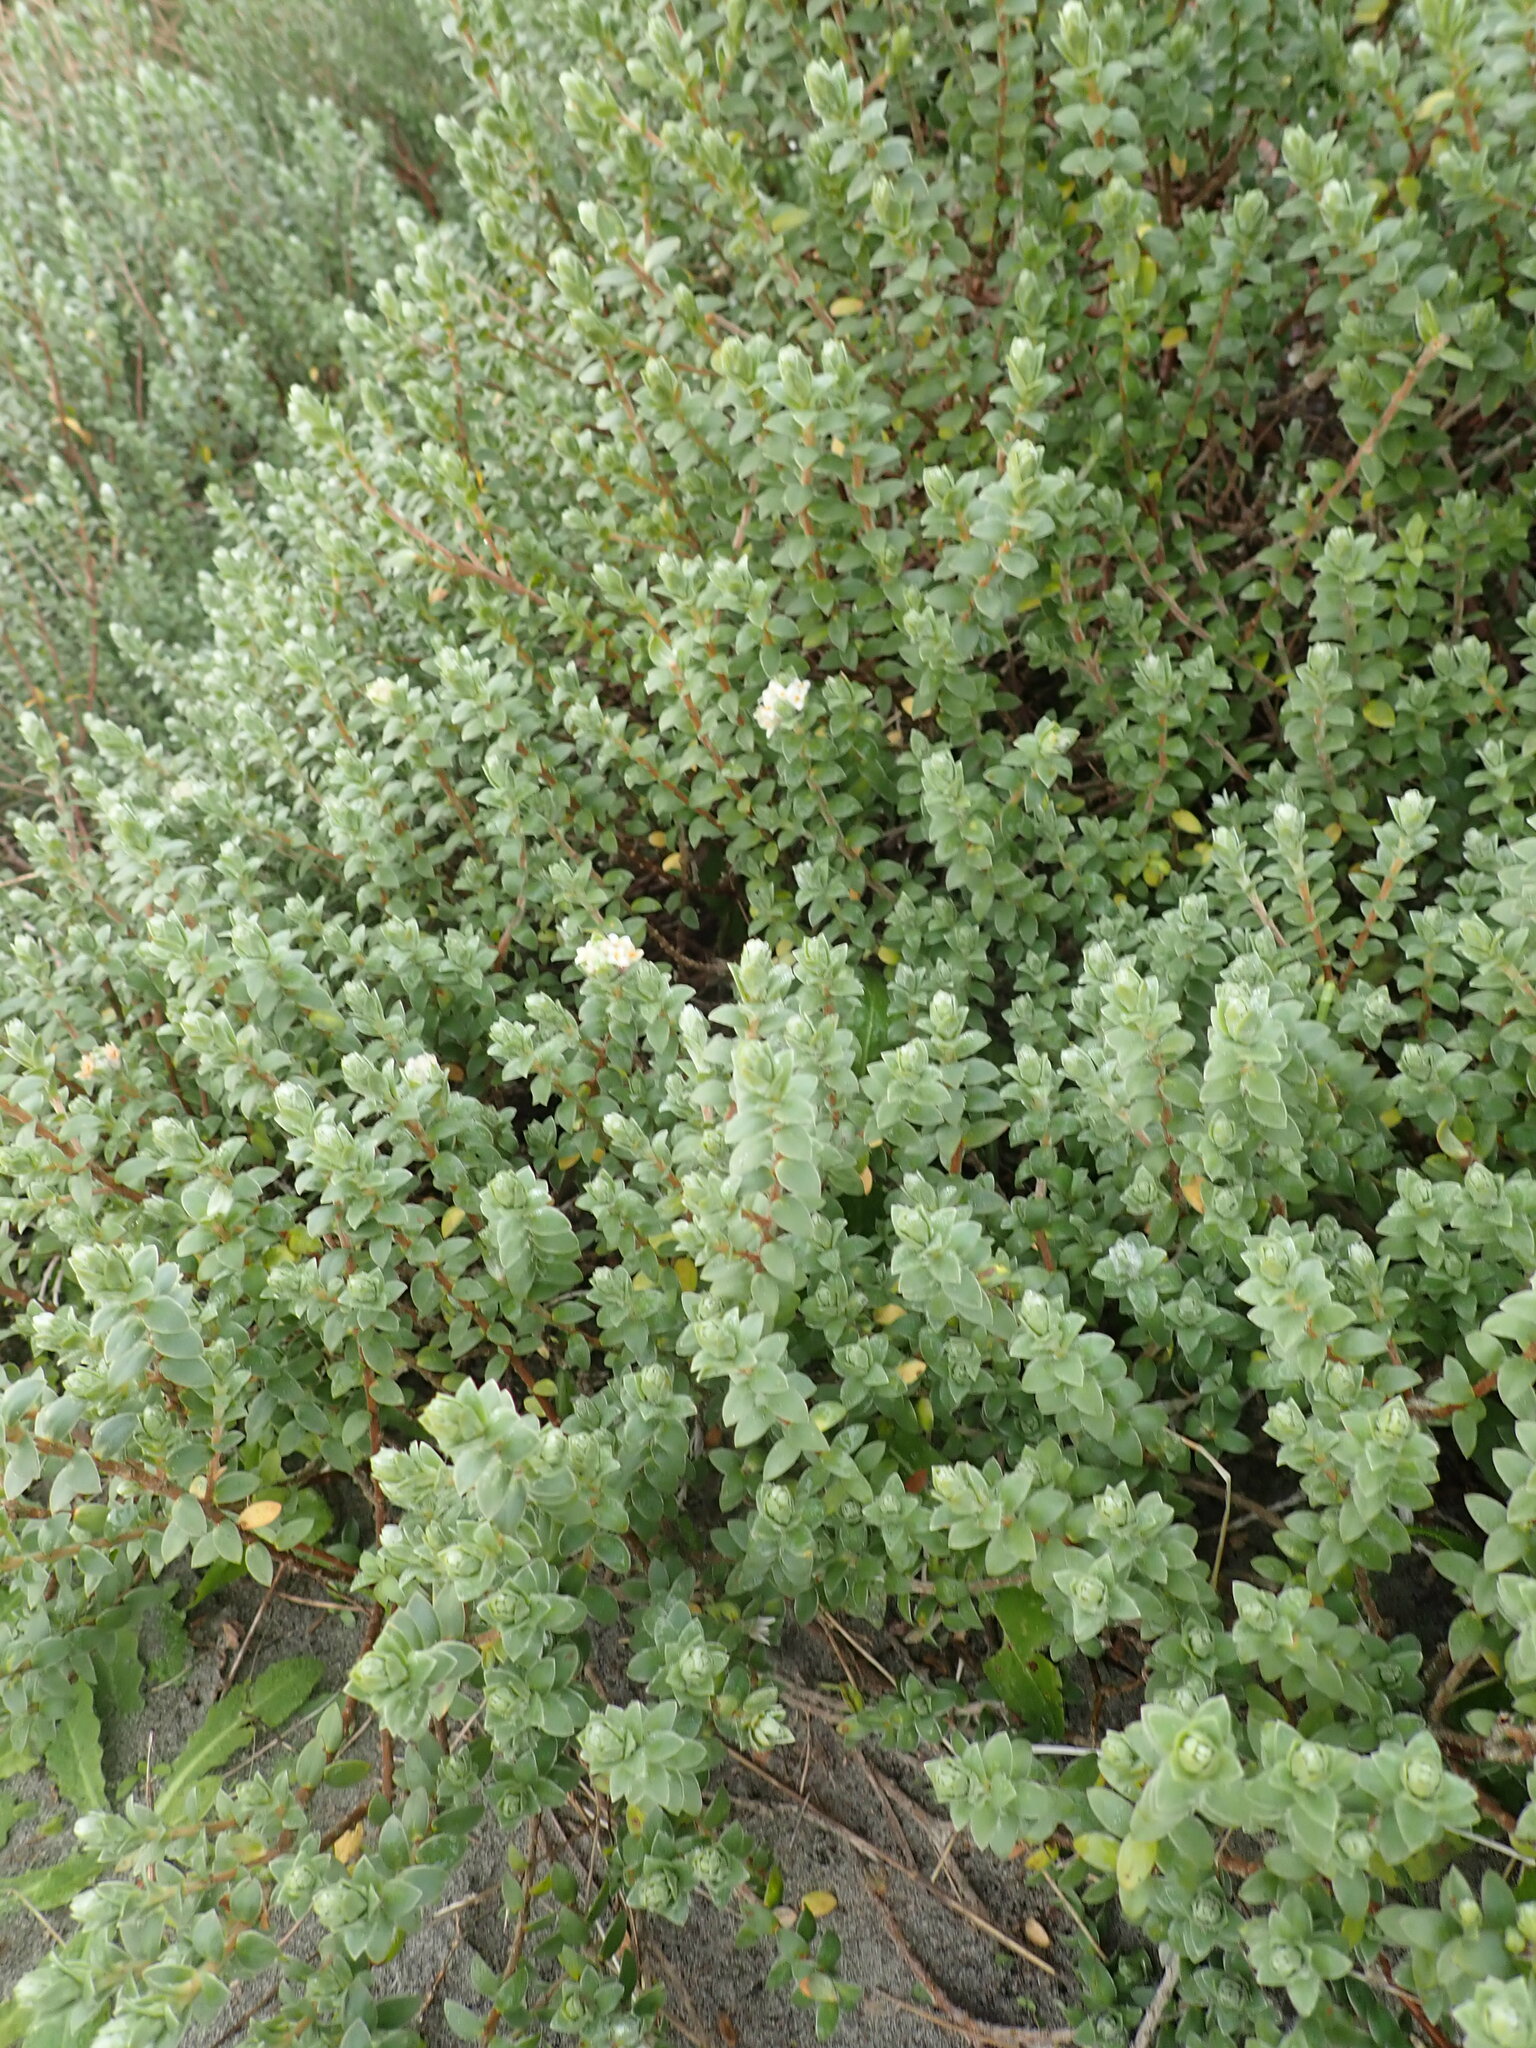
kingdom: Plantae
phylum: Tracheophyta
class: Magnoliopsida
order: Malvales
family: Thymelaeaceae
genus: Pimelea
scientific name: Pimelea villosa
